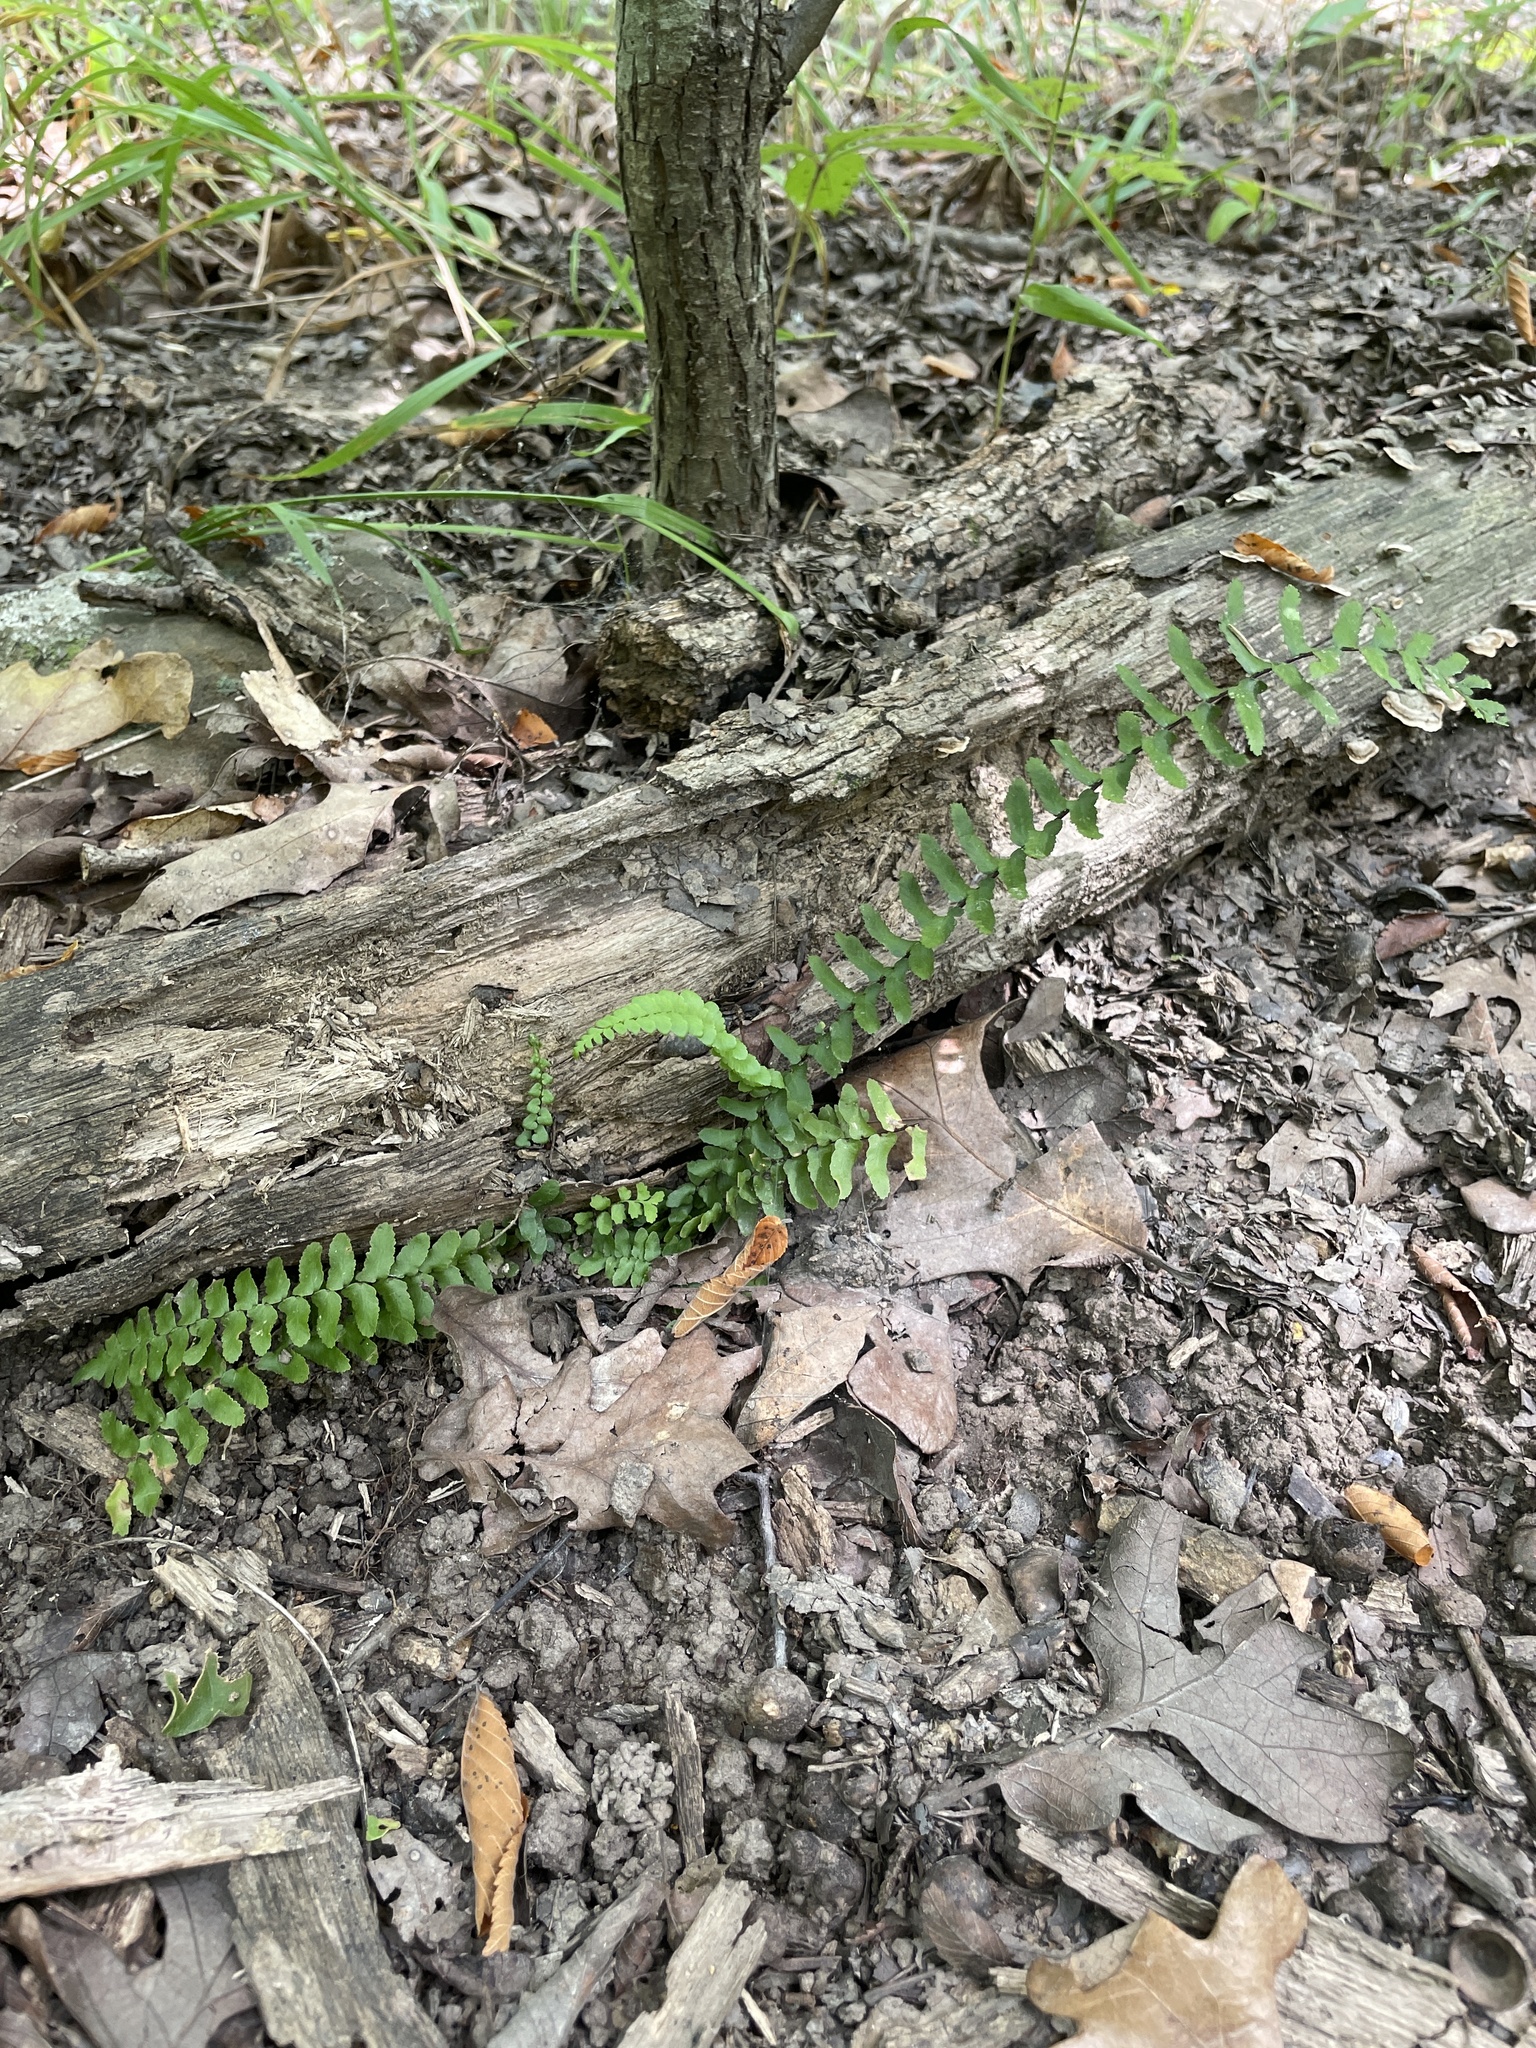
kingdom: Plantae
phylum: Tracheophyta
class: Polypodiopsida
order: Polypodiales
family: Aspleniaceae
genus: Asplenium
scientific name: Asplenium platyneuron
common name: Ebony spleenwort
